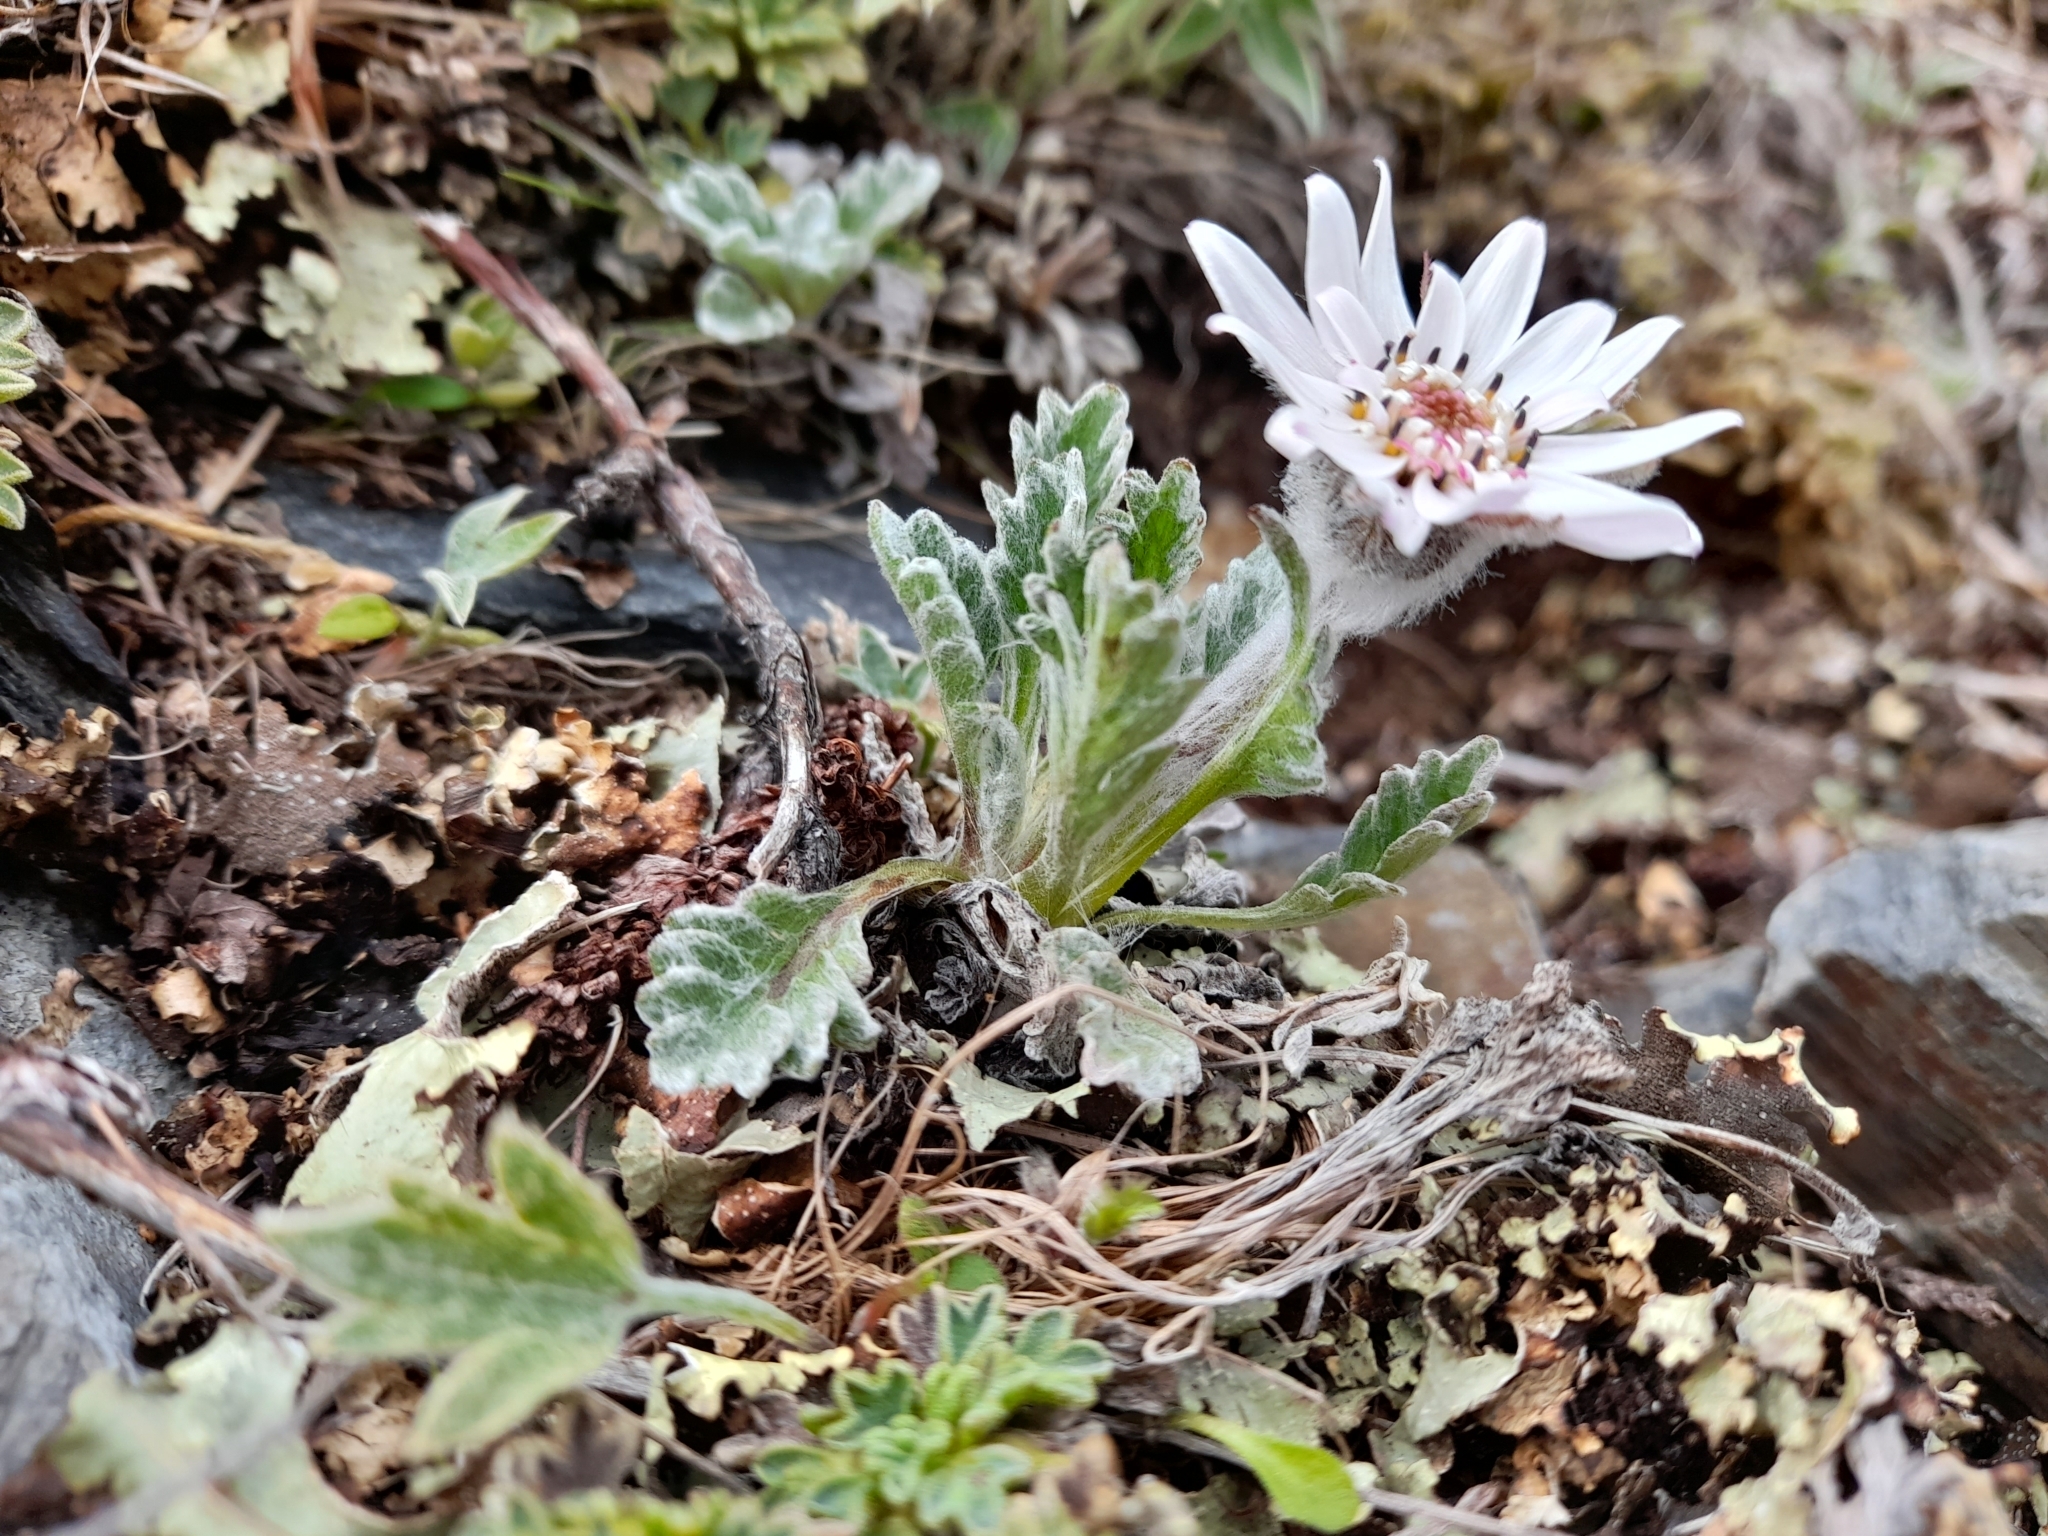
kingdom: Plantae
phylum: Tracheophyta
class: Magnoliopsida
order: Asterales
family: Asteraceae
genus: Leucheria
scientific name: Leucheria leontopodioides
